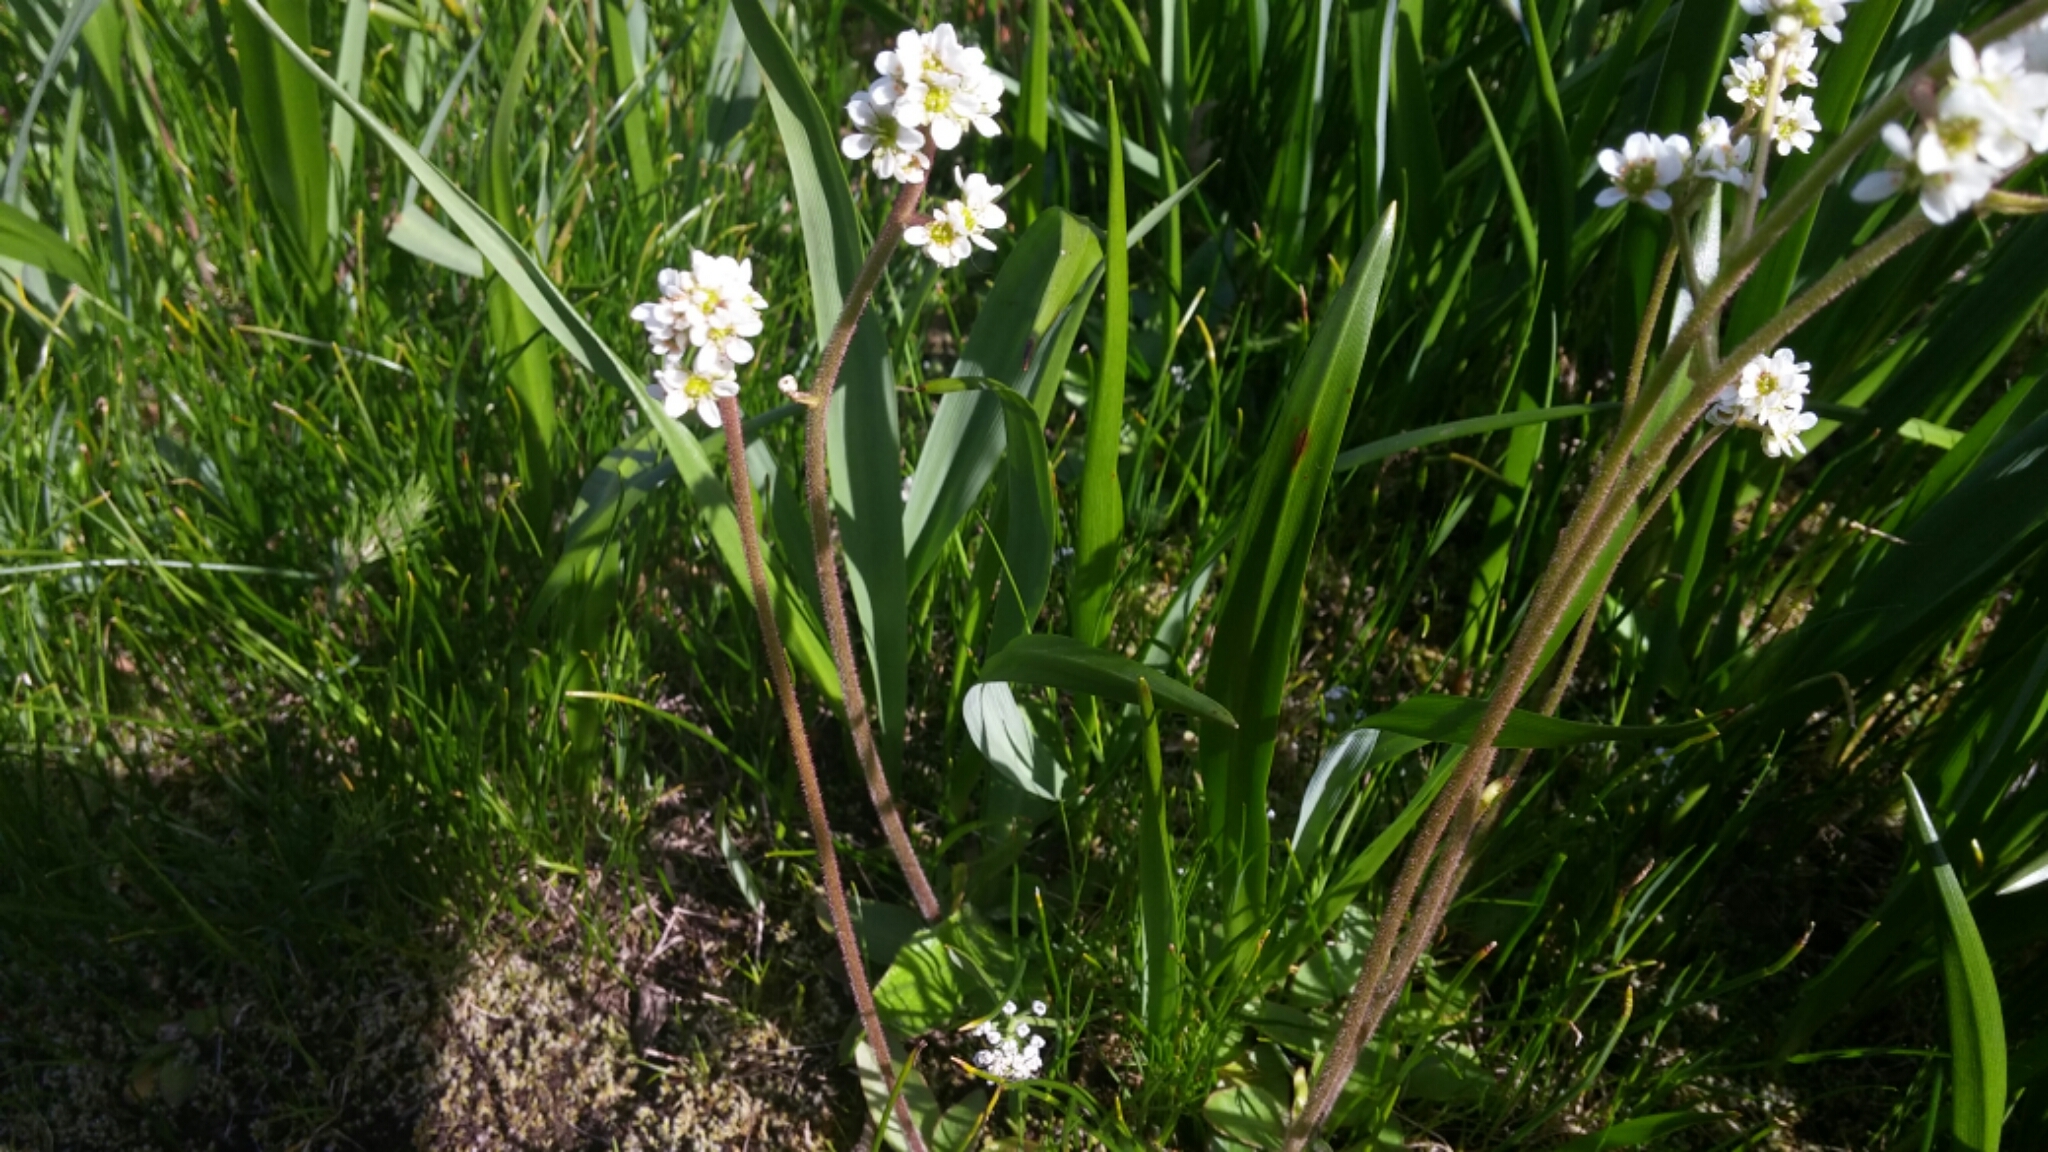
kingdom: Plantae
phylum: Tracheophyta
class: Magnoliopsida
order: Saxifragales
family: Saxifragaceae
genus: Micranthes
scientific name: Micranthes integrifolia
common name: Wholeleaf saxifrage
